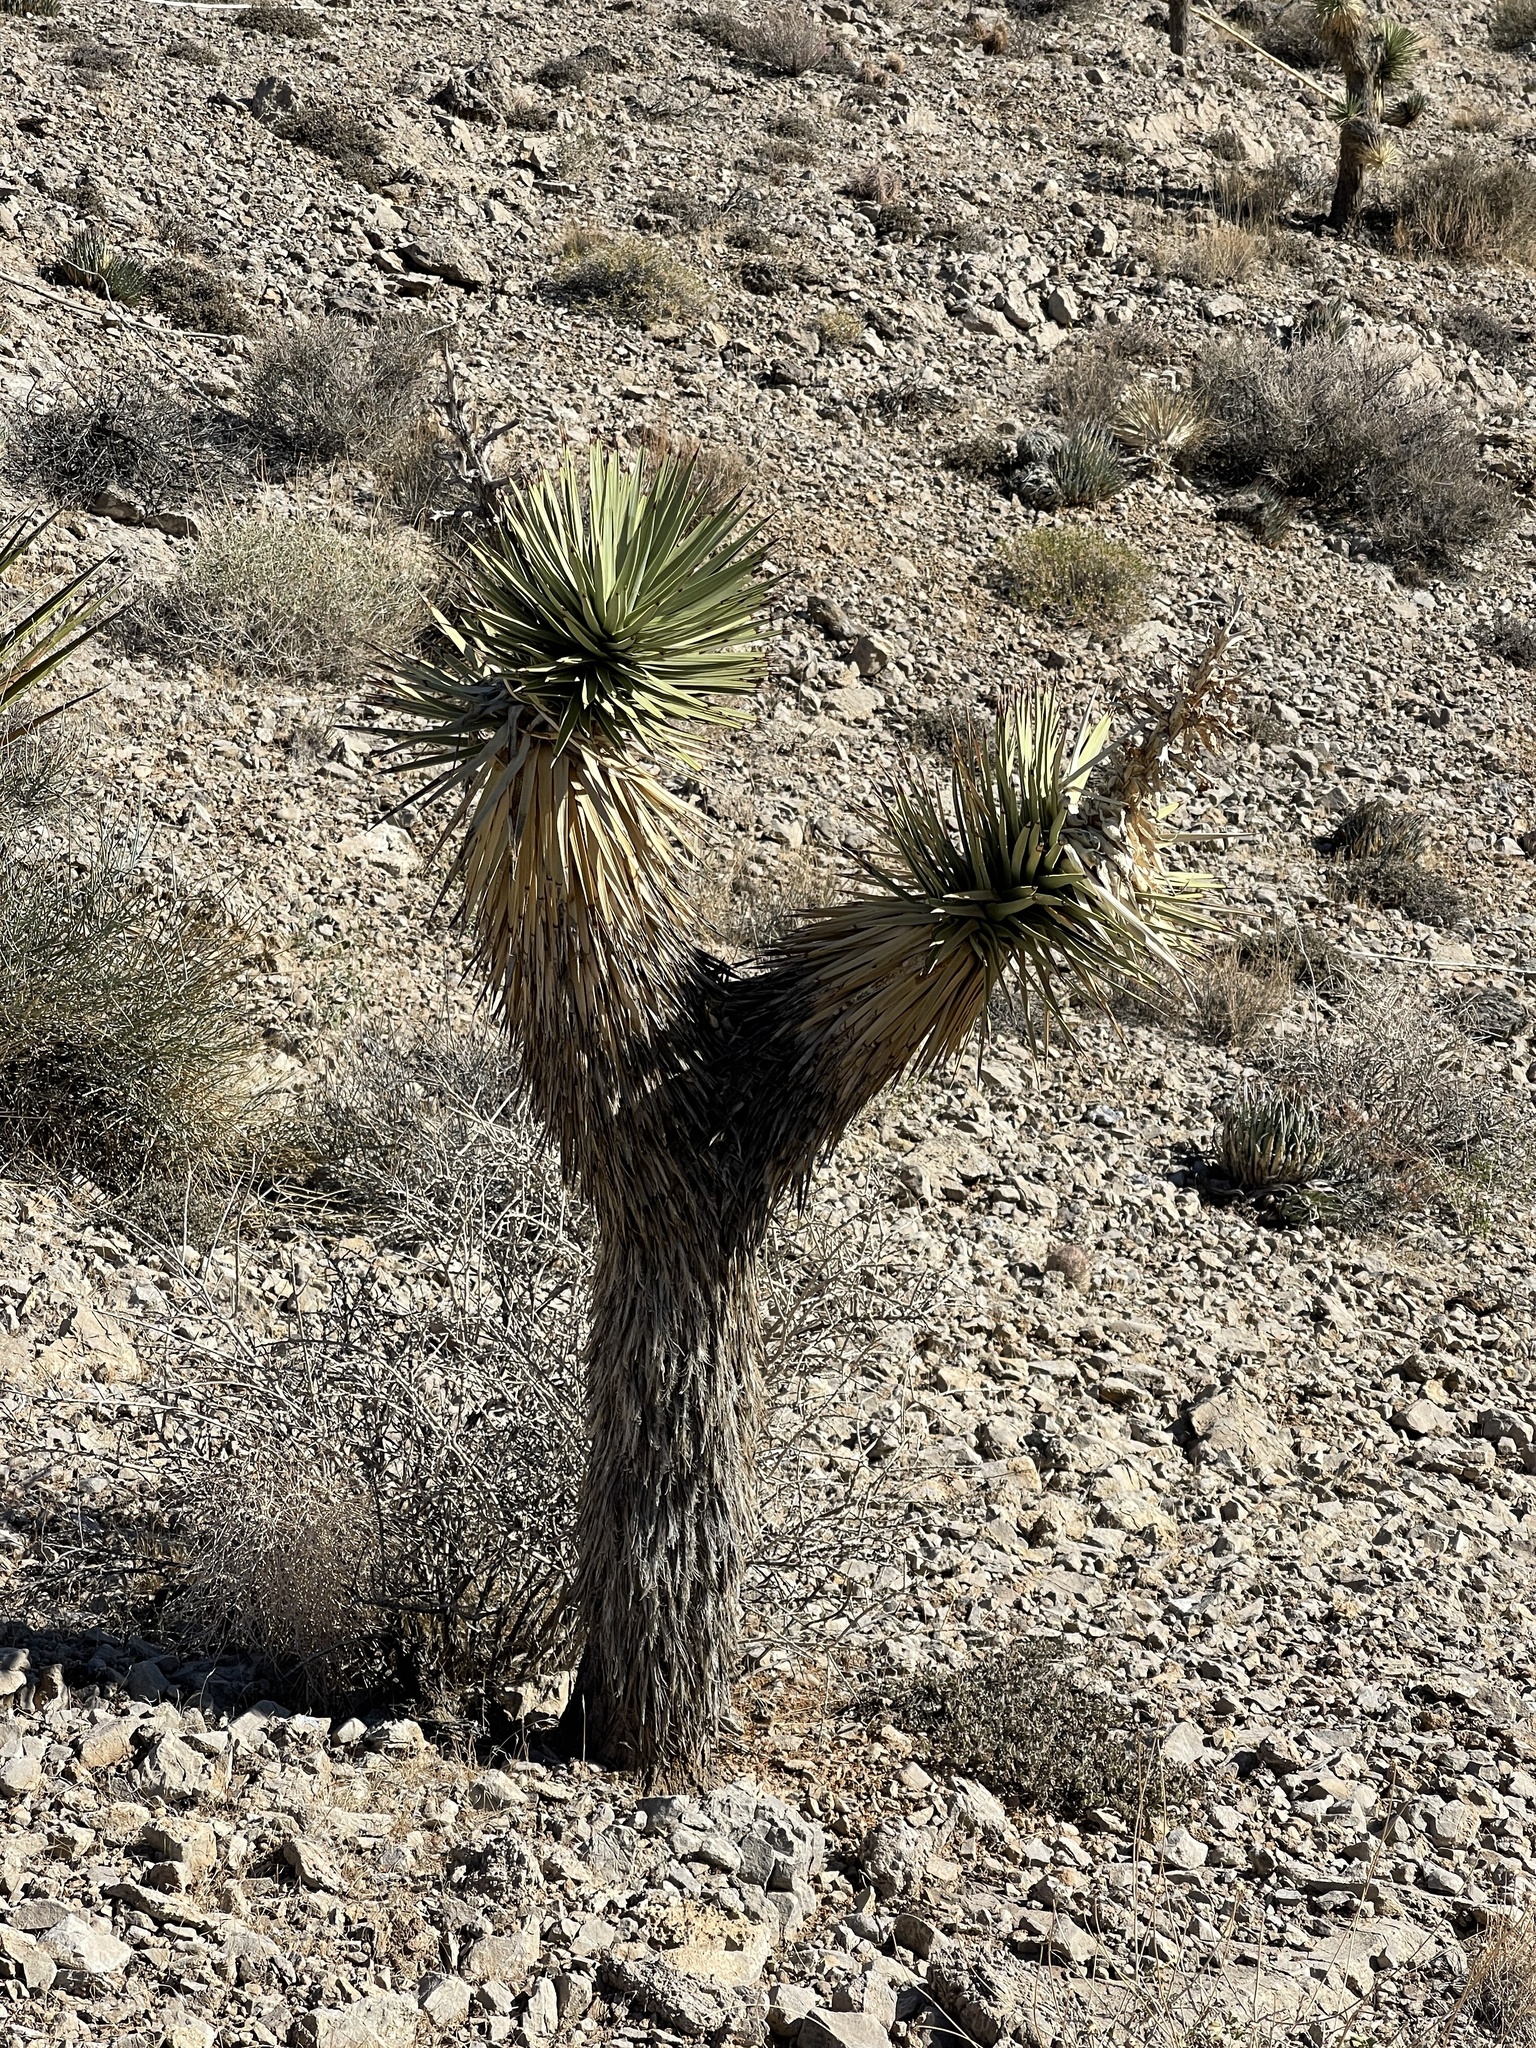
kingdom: Plantae
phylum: Tracheophyta
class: Liliopsida
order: Asparagales
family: Asparagaceae
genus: Yucca
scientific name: Yucca brevifolia
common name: Joshua tree
